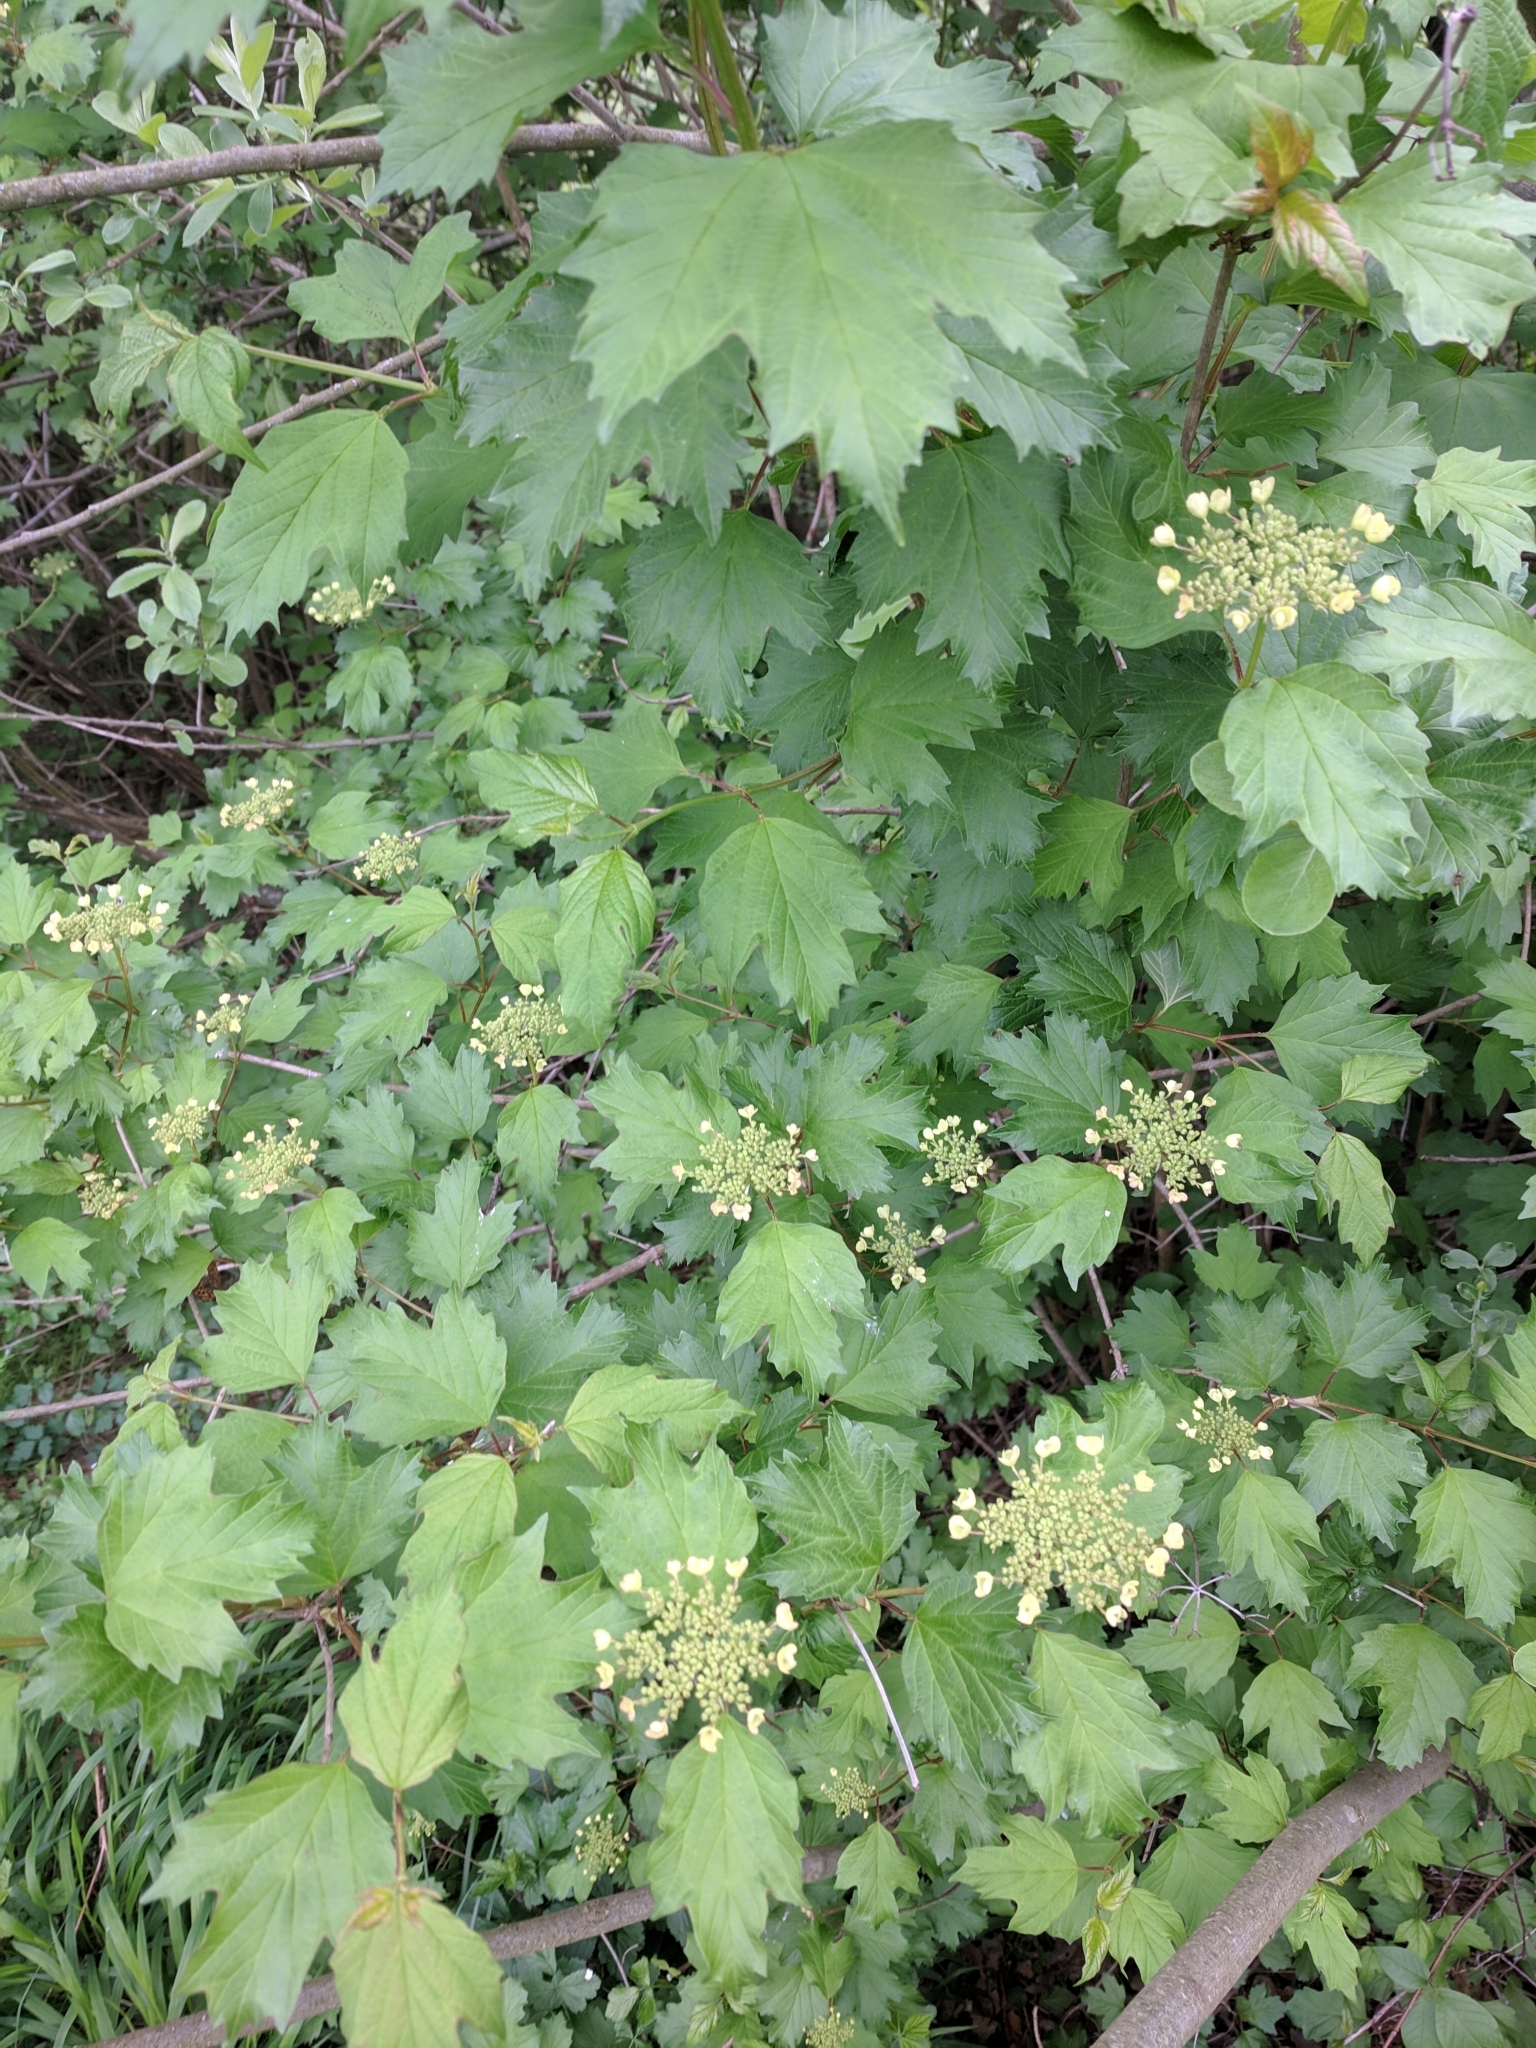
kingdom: Plantae
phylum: Tracheophyta
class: Magnoliopsida
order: Dipsacales
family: Viburnaceae
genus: Viburnum
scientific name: Viburnum opulus
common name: Guelder-rose
